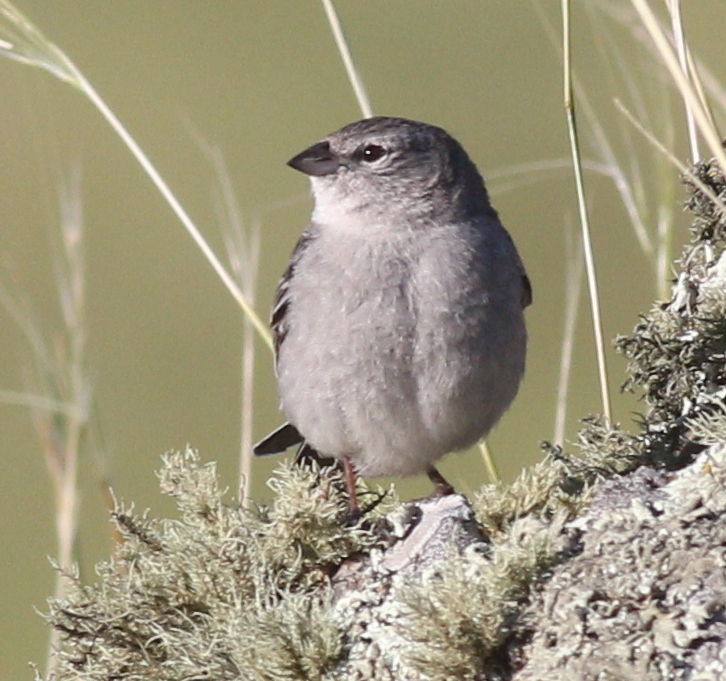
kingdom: Animalia
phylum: Chordata
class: Aves
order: Passeriformes
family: Thraupidae
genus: Geospizopsis
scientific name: Geospizopsis plebejus
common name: Ash-breasted sierra-finch
